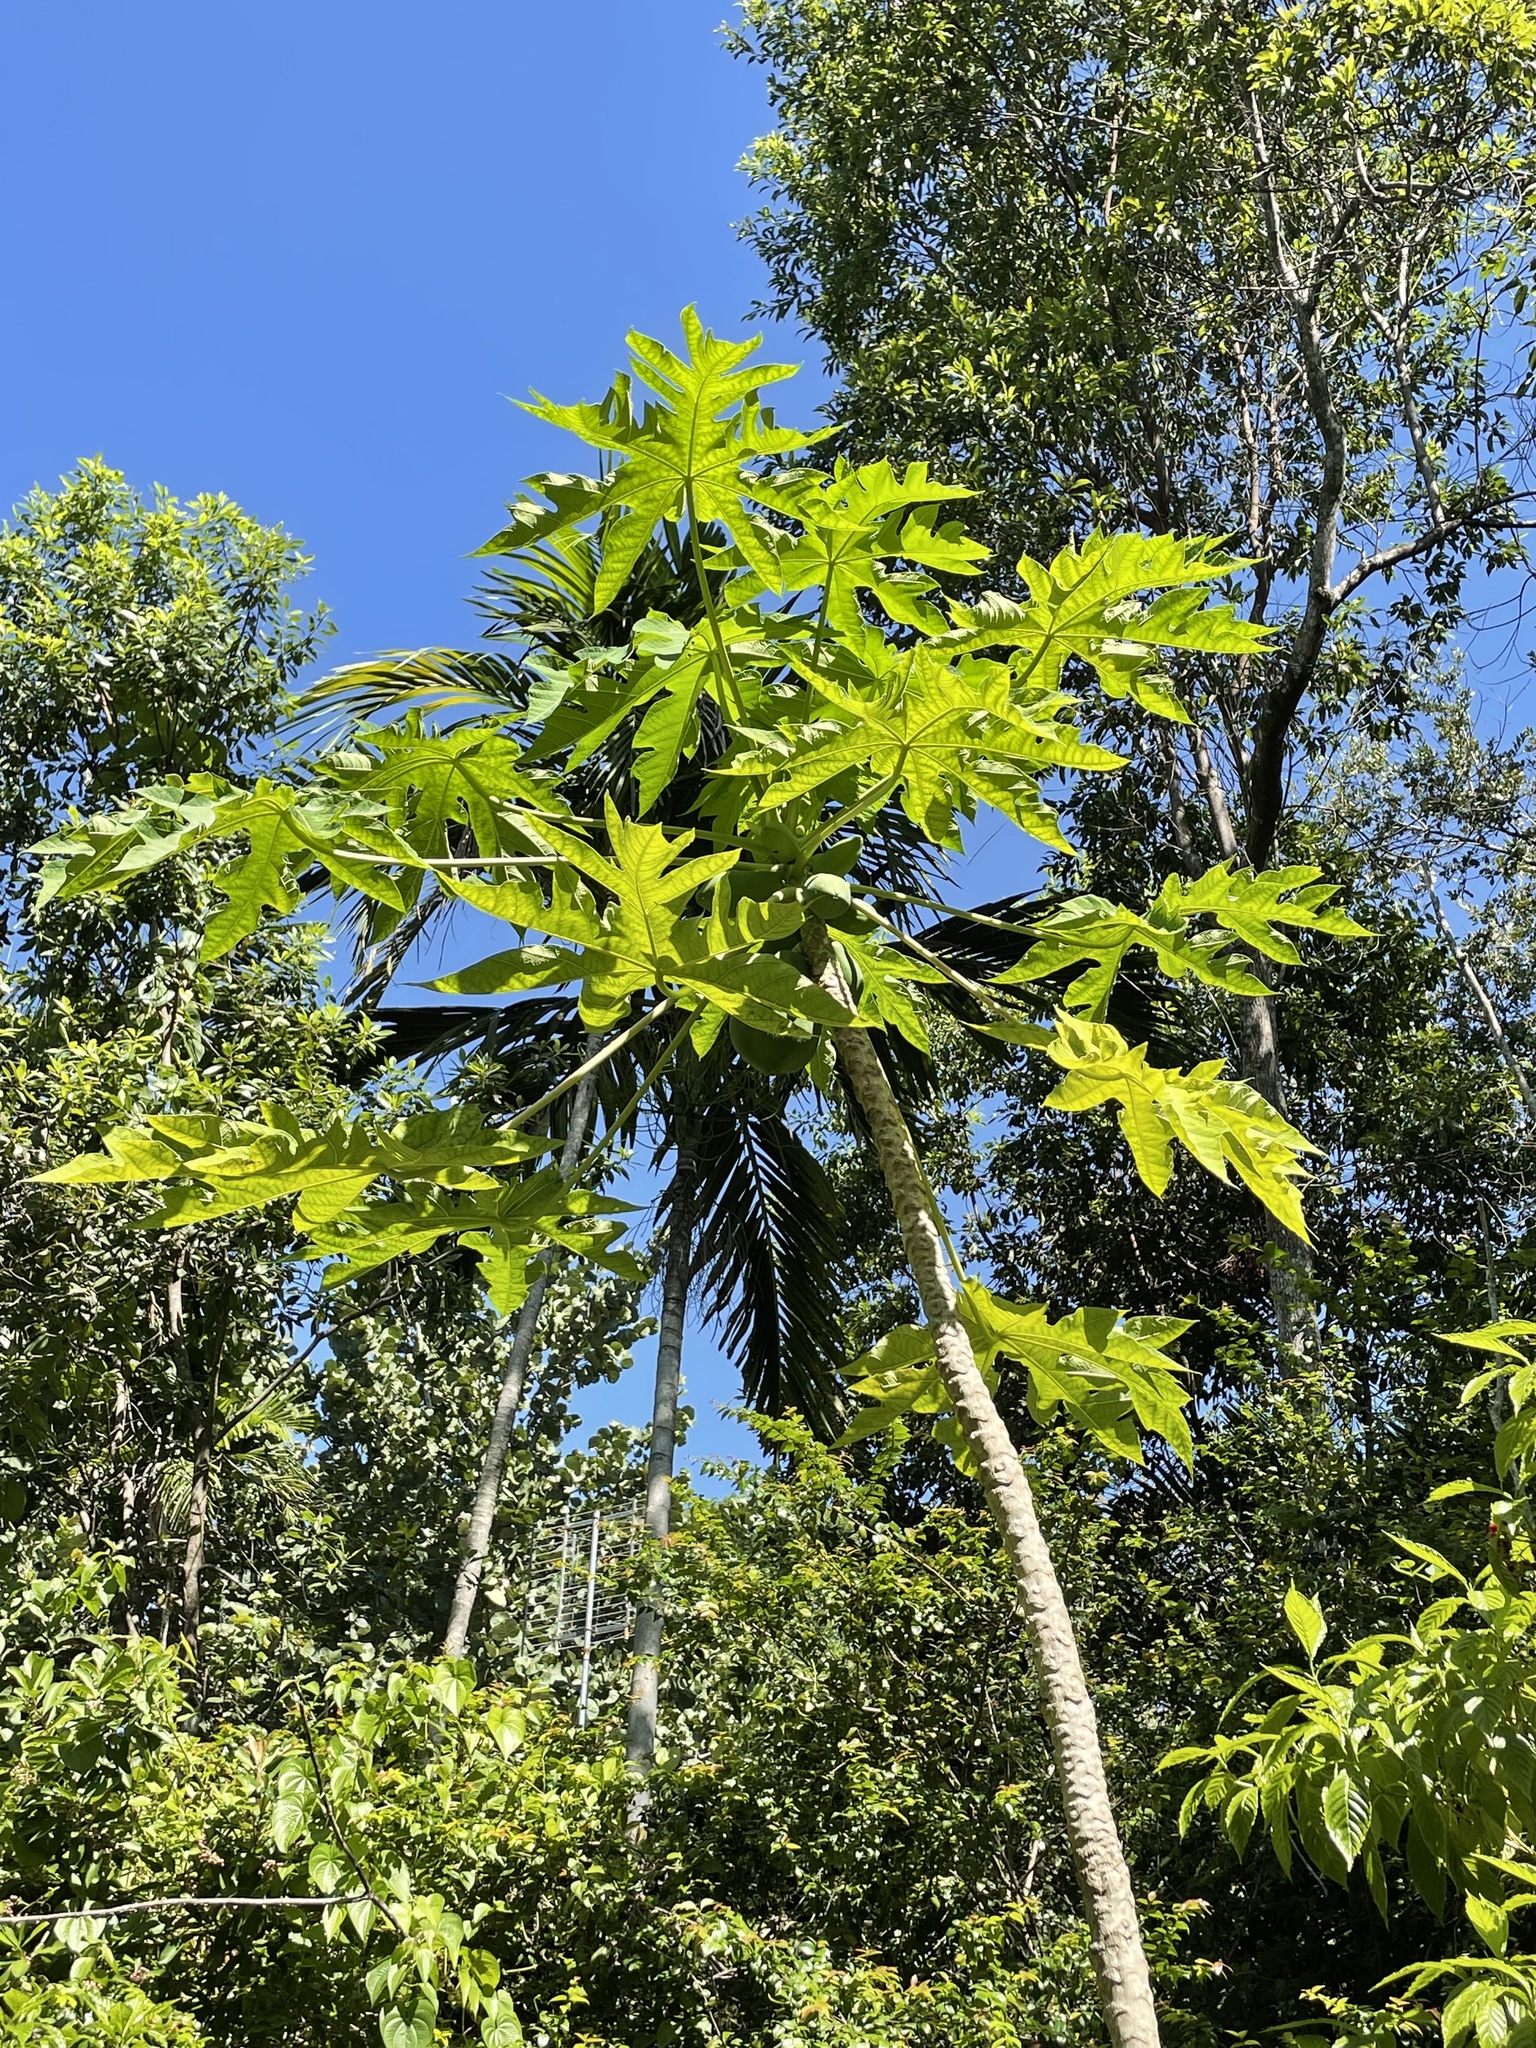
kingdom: Plantae
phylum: Tracheophyta
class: Magnoliopsida
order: Brassicales
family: Caricaceae
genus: Carica
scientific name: Carica papaya
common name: Papaya
